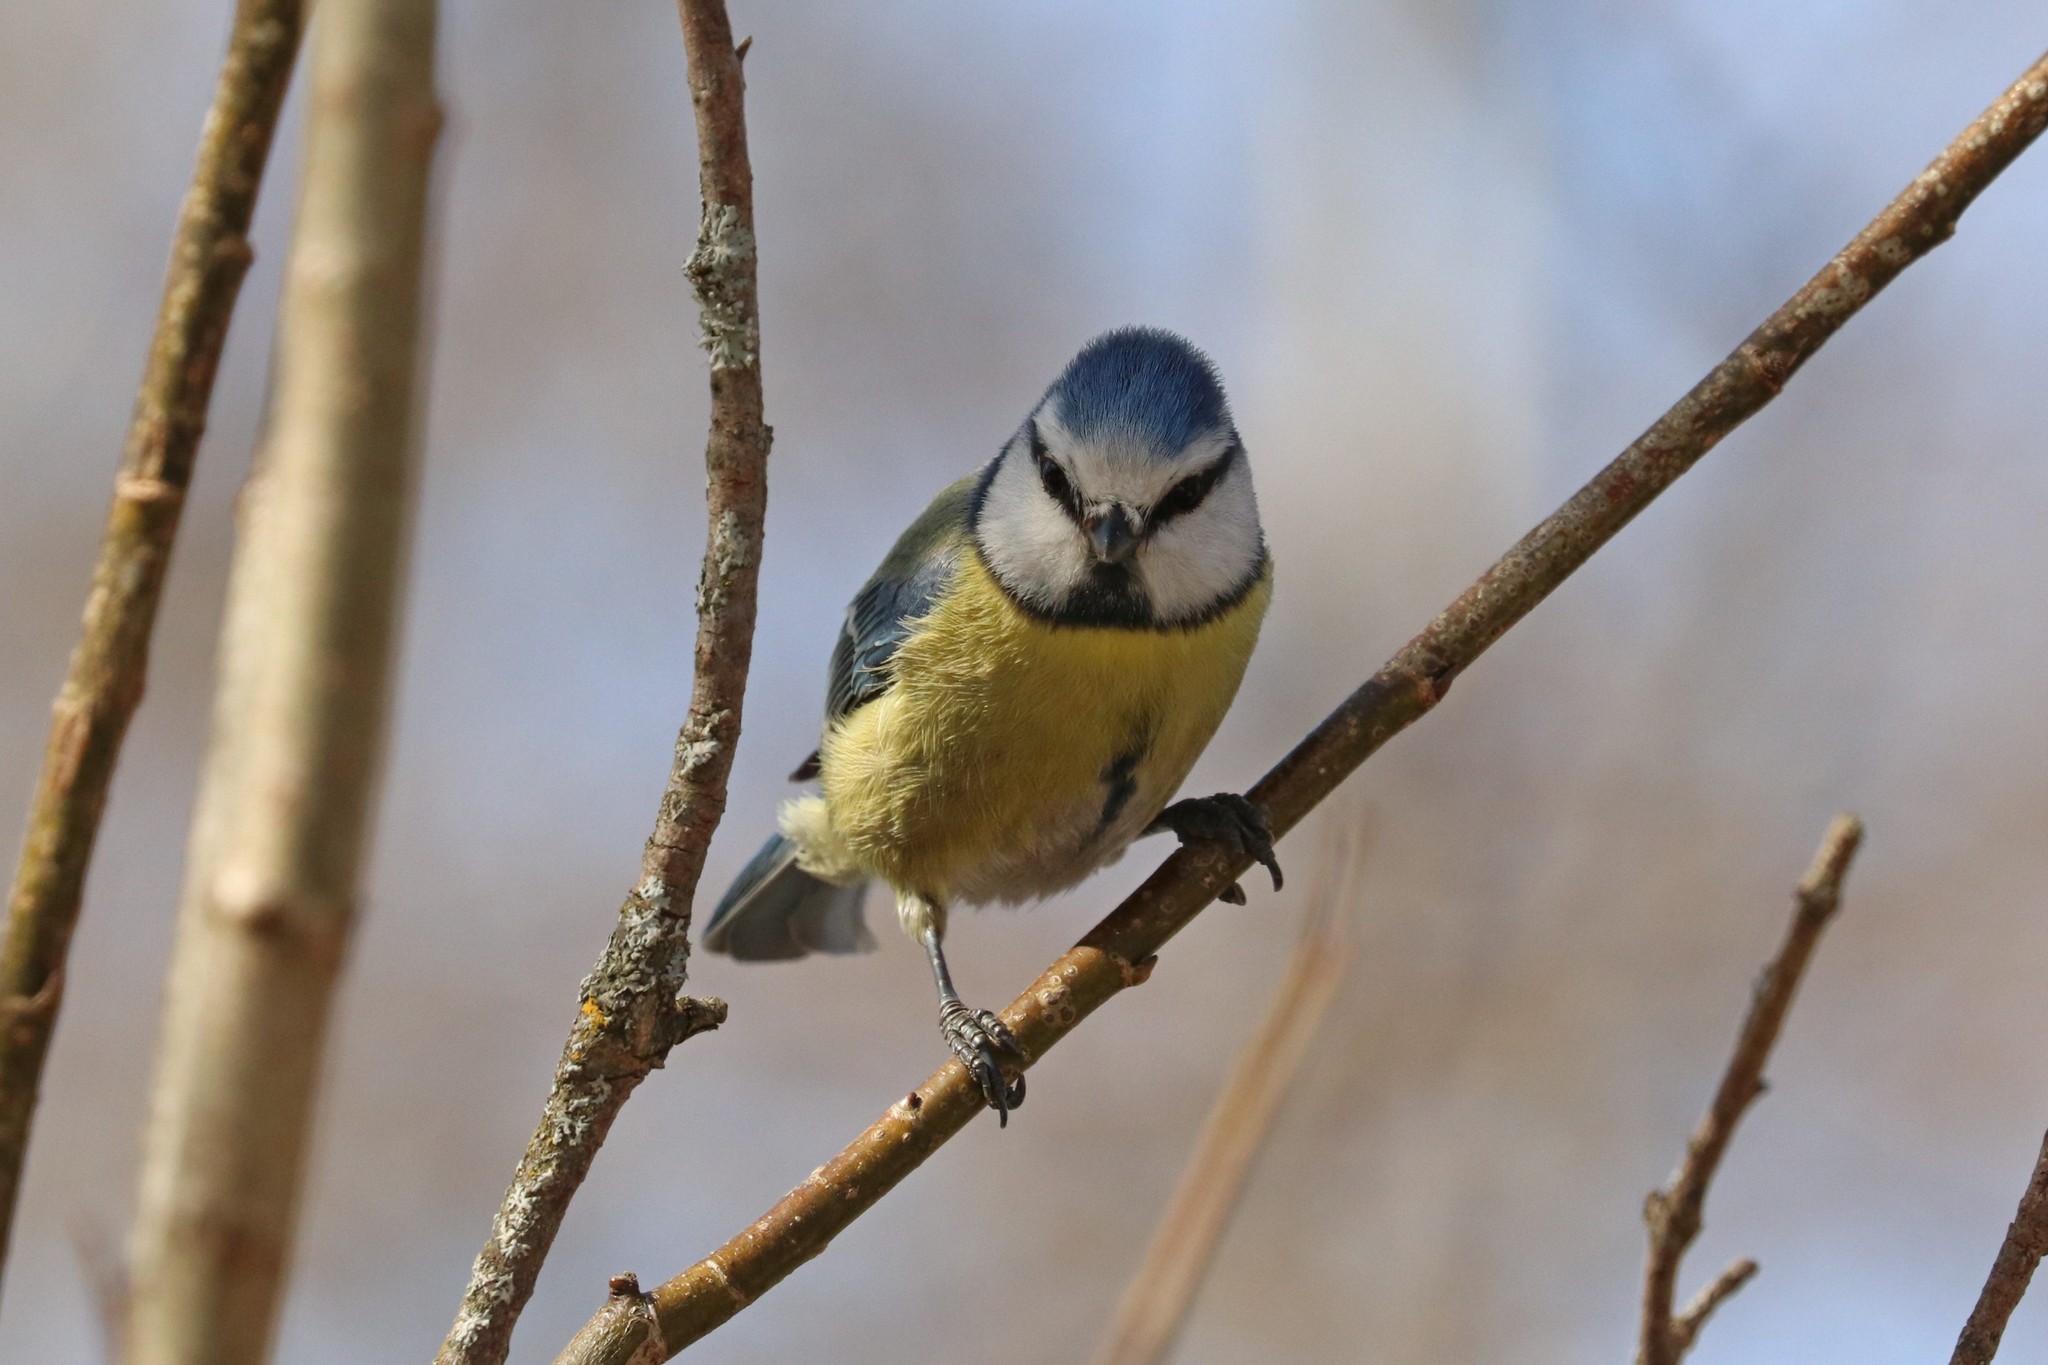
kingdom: Animalia
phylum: Chordata
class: Aves
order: Passeriformes
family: Paridae
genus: Cyanistes
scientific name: Cyanistes caeruleus
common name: Eurasian blue tit
